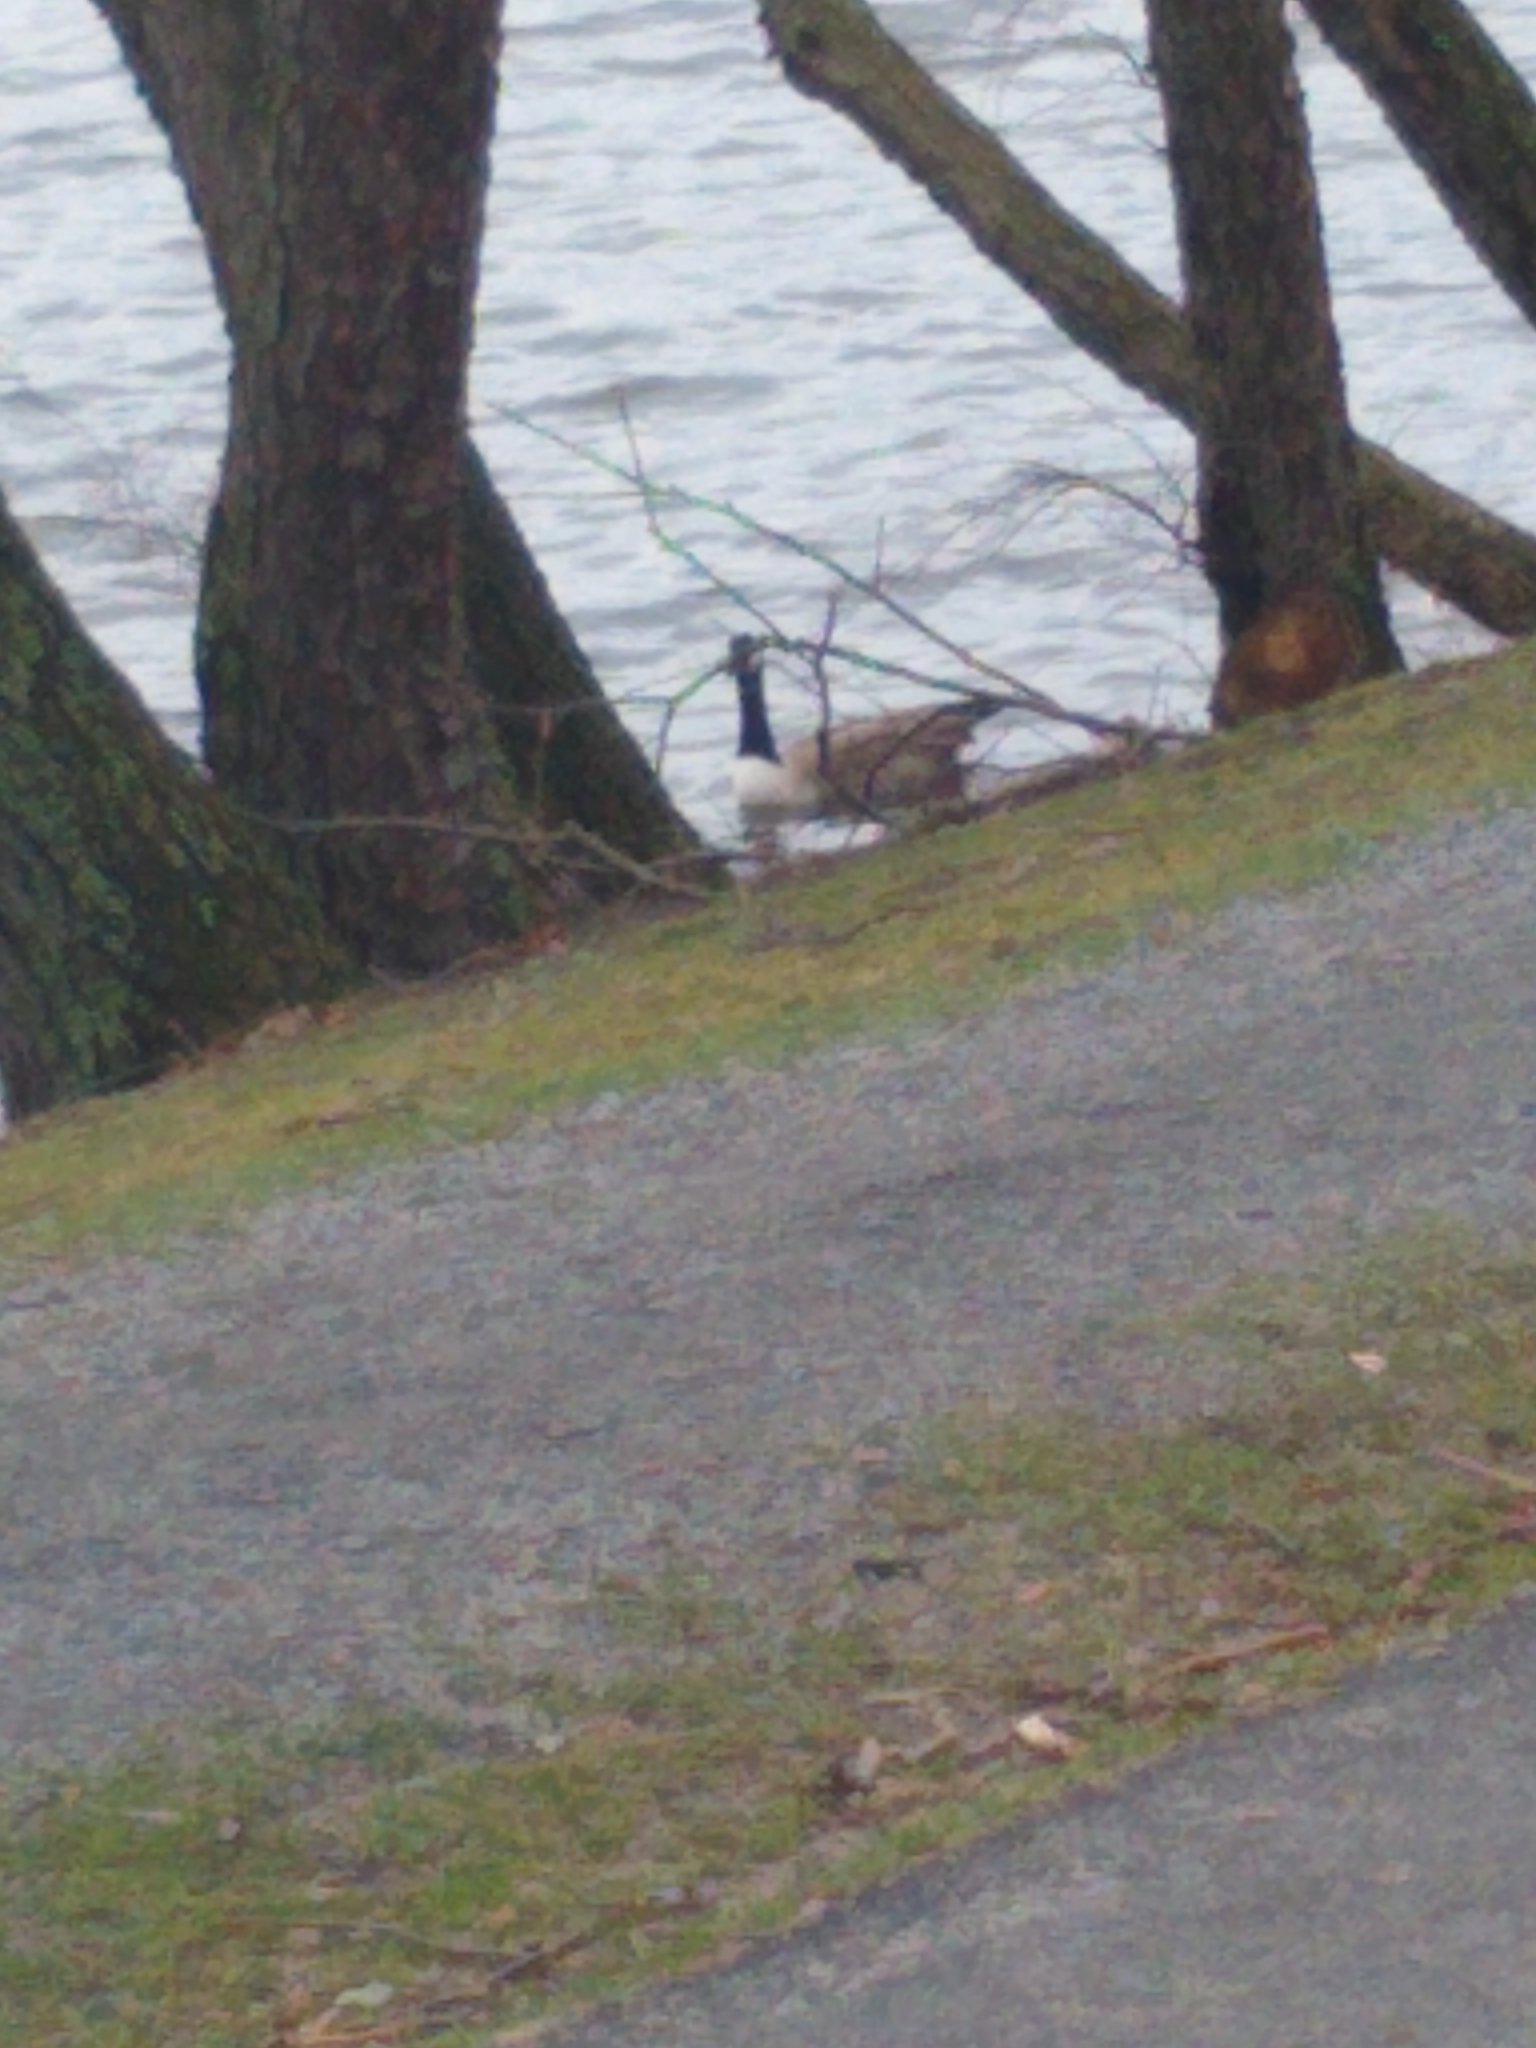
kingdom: Animalia
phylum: Chordata
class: Aves
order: Anseriformes
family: Anatidae
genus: Branta
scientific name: Branta canadensis
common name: Canada goose
